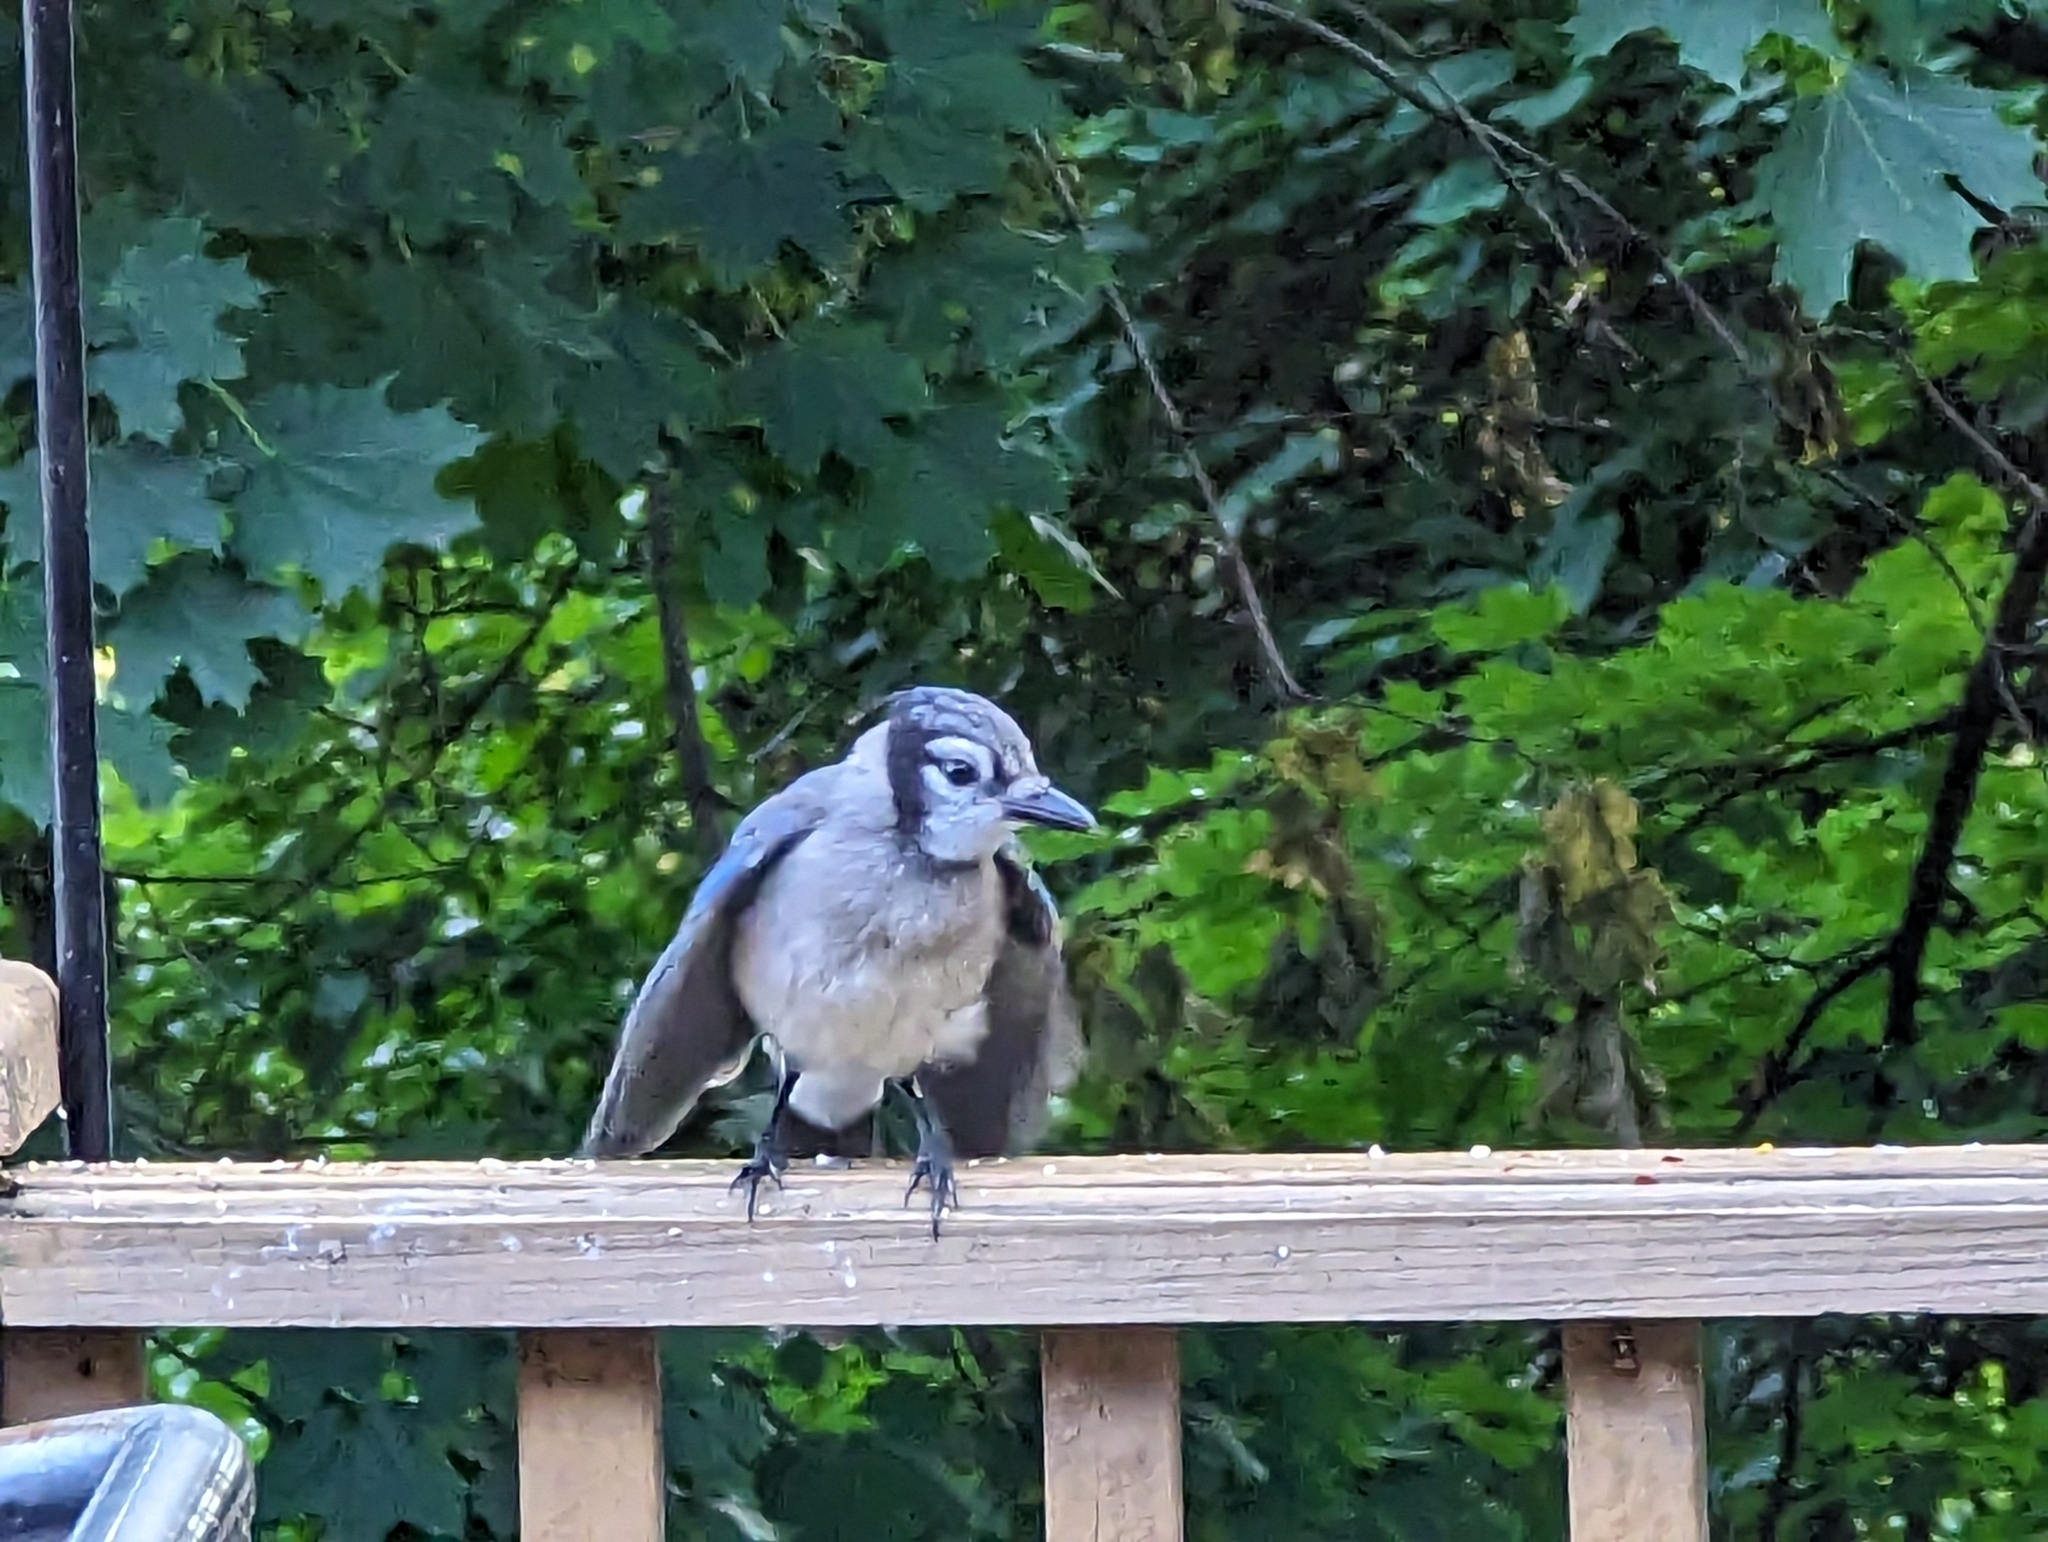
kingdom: Animalia
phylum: Chordata
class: Aves
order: Passeriformes
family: Corvidae
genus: Cyanocitta
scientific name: Cyanocitta cristata
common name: Blue jay
